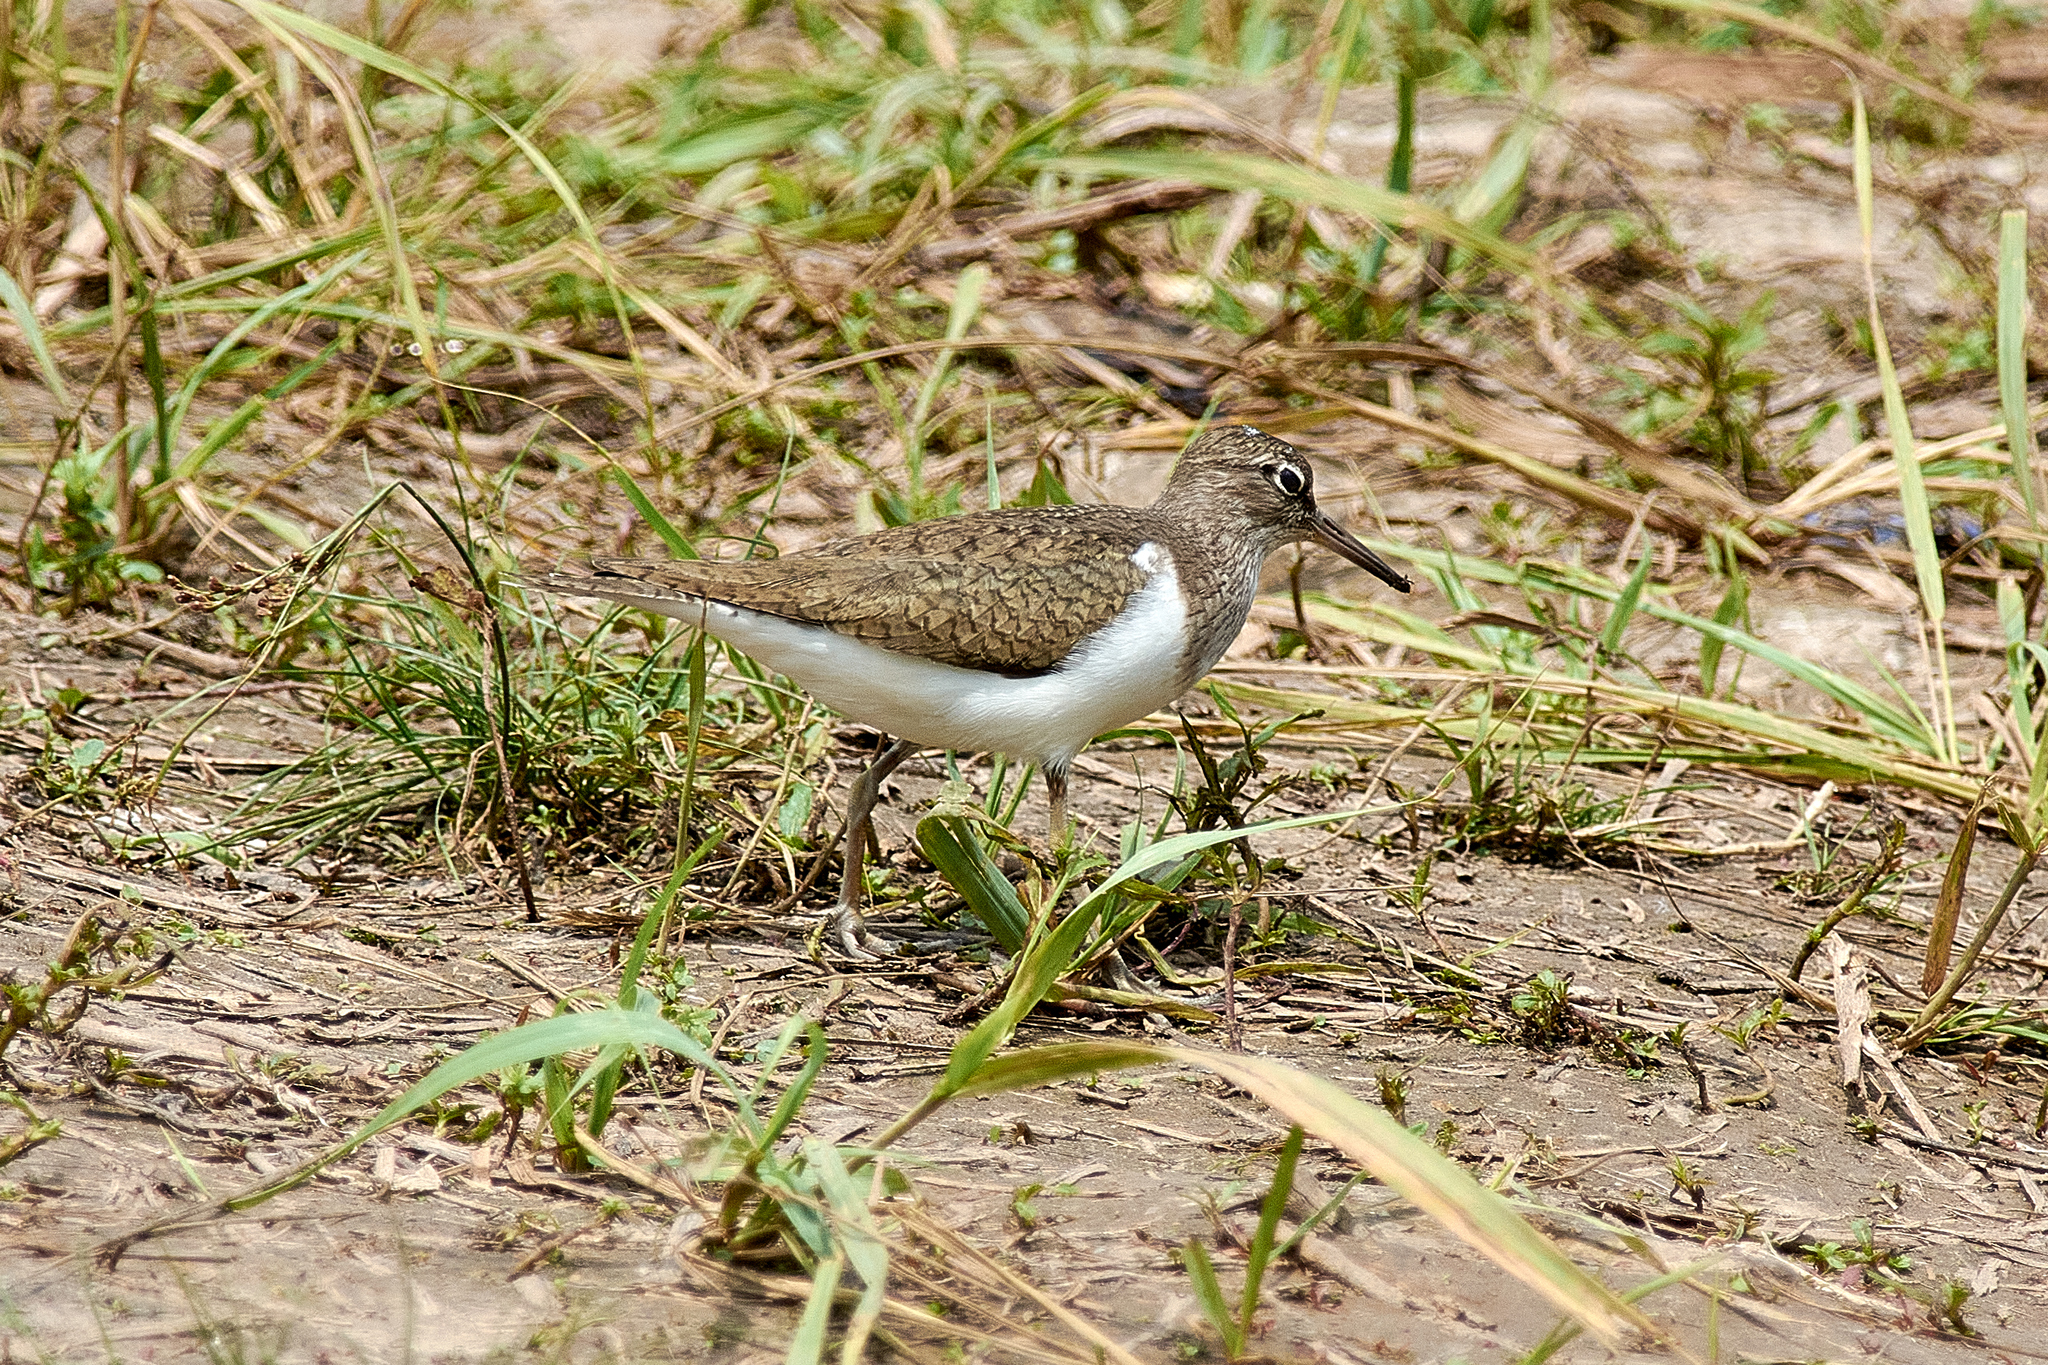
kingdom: Animalia
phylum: Chordata
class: Aves
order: Charadriiformes
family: Scolopacidae
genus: Actitis
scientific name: Actitis hypoleucos
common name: Common sandpiper
